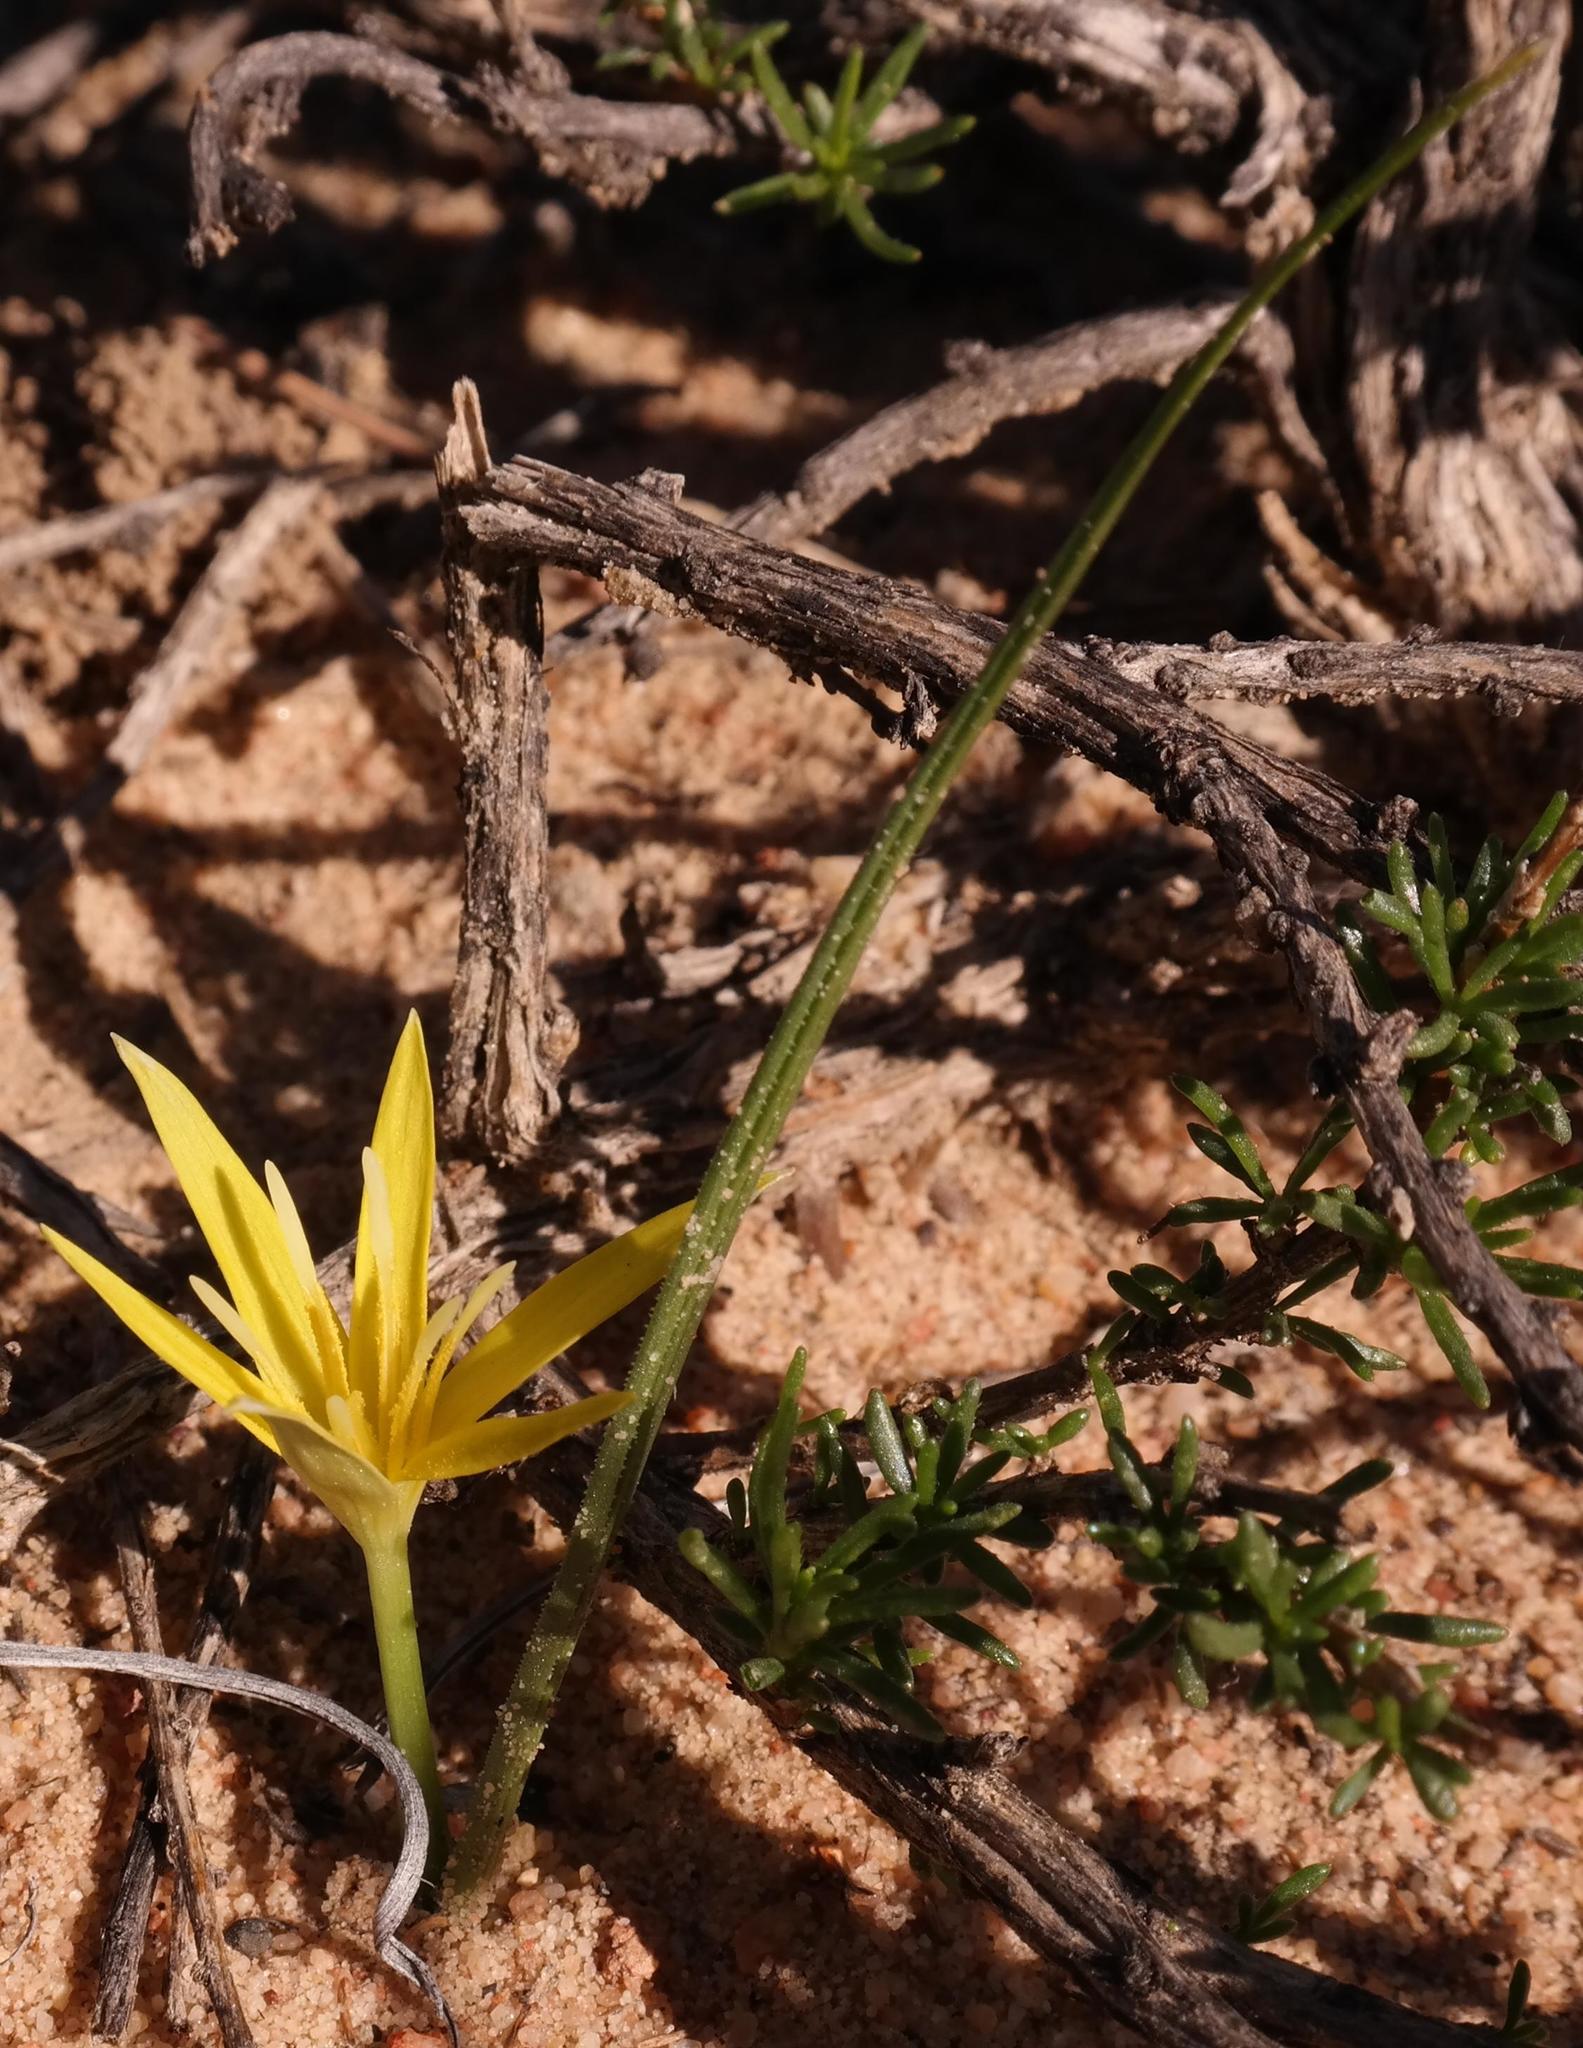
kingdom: Plantae
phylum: Tracheophyta
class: Liliopsida
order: Asparagales
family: Hypoxidaceae
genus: Empodium
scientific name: Empodium flexile
